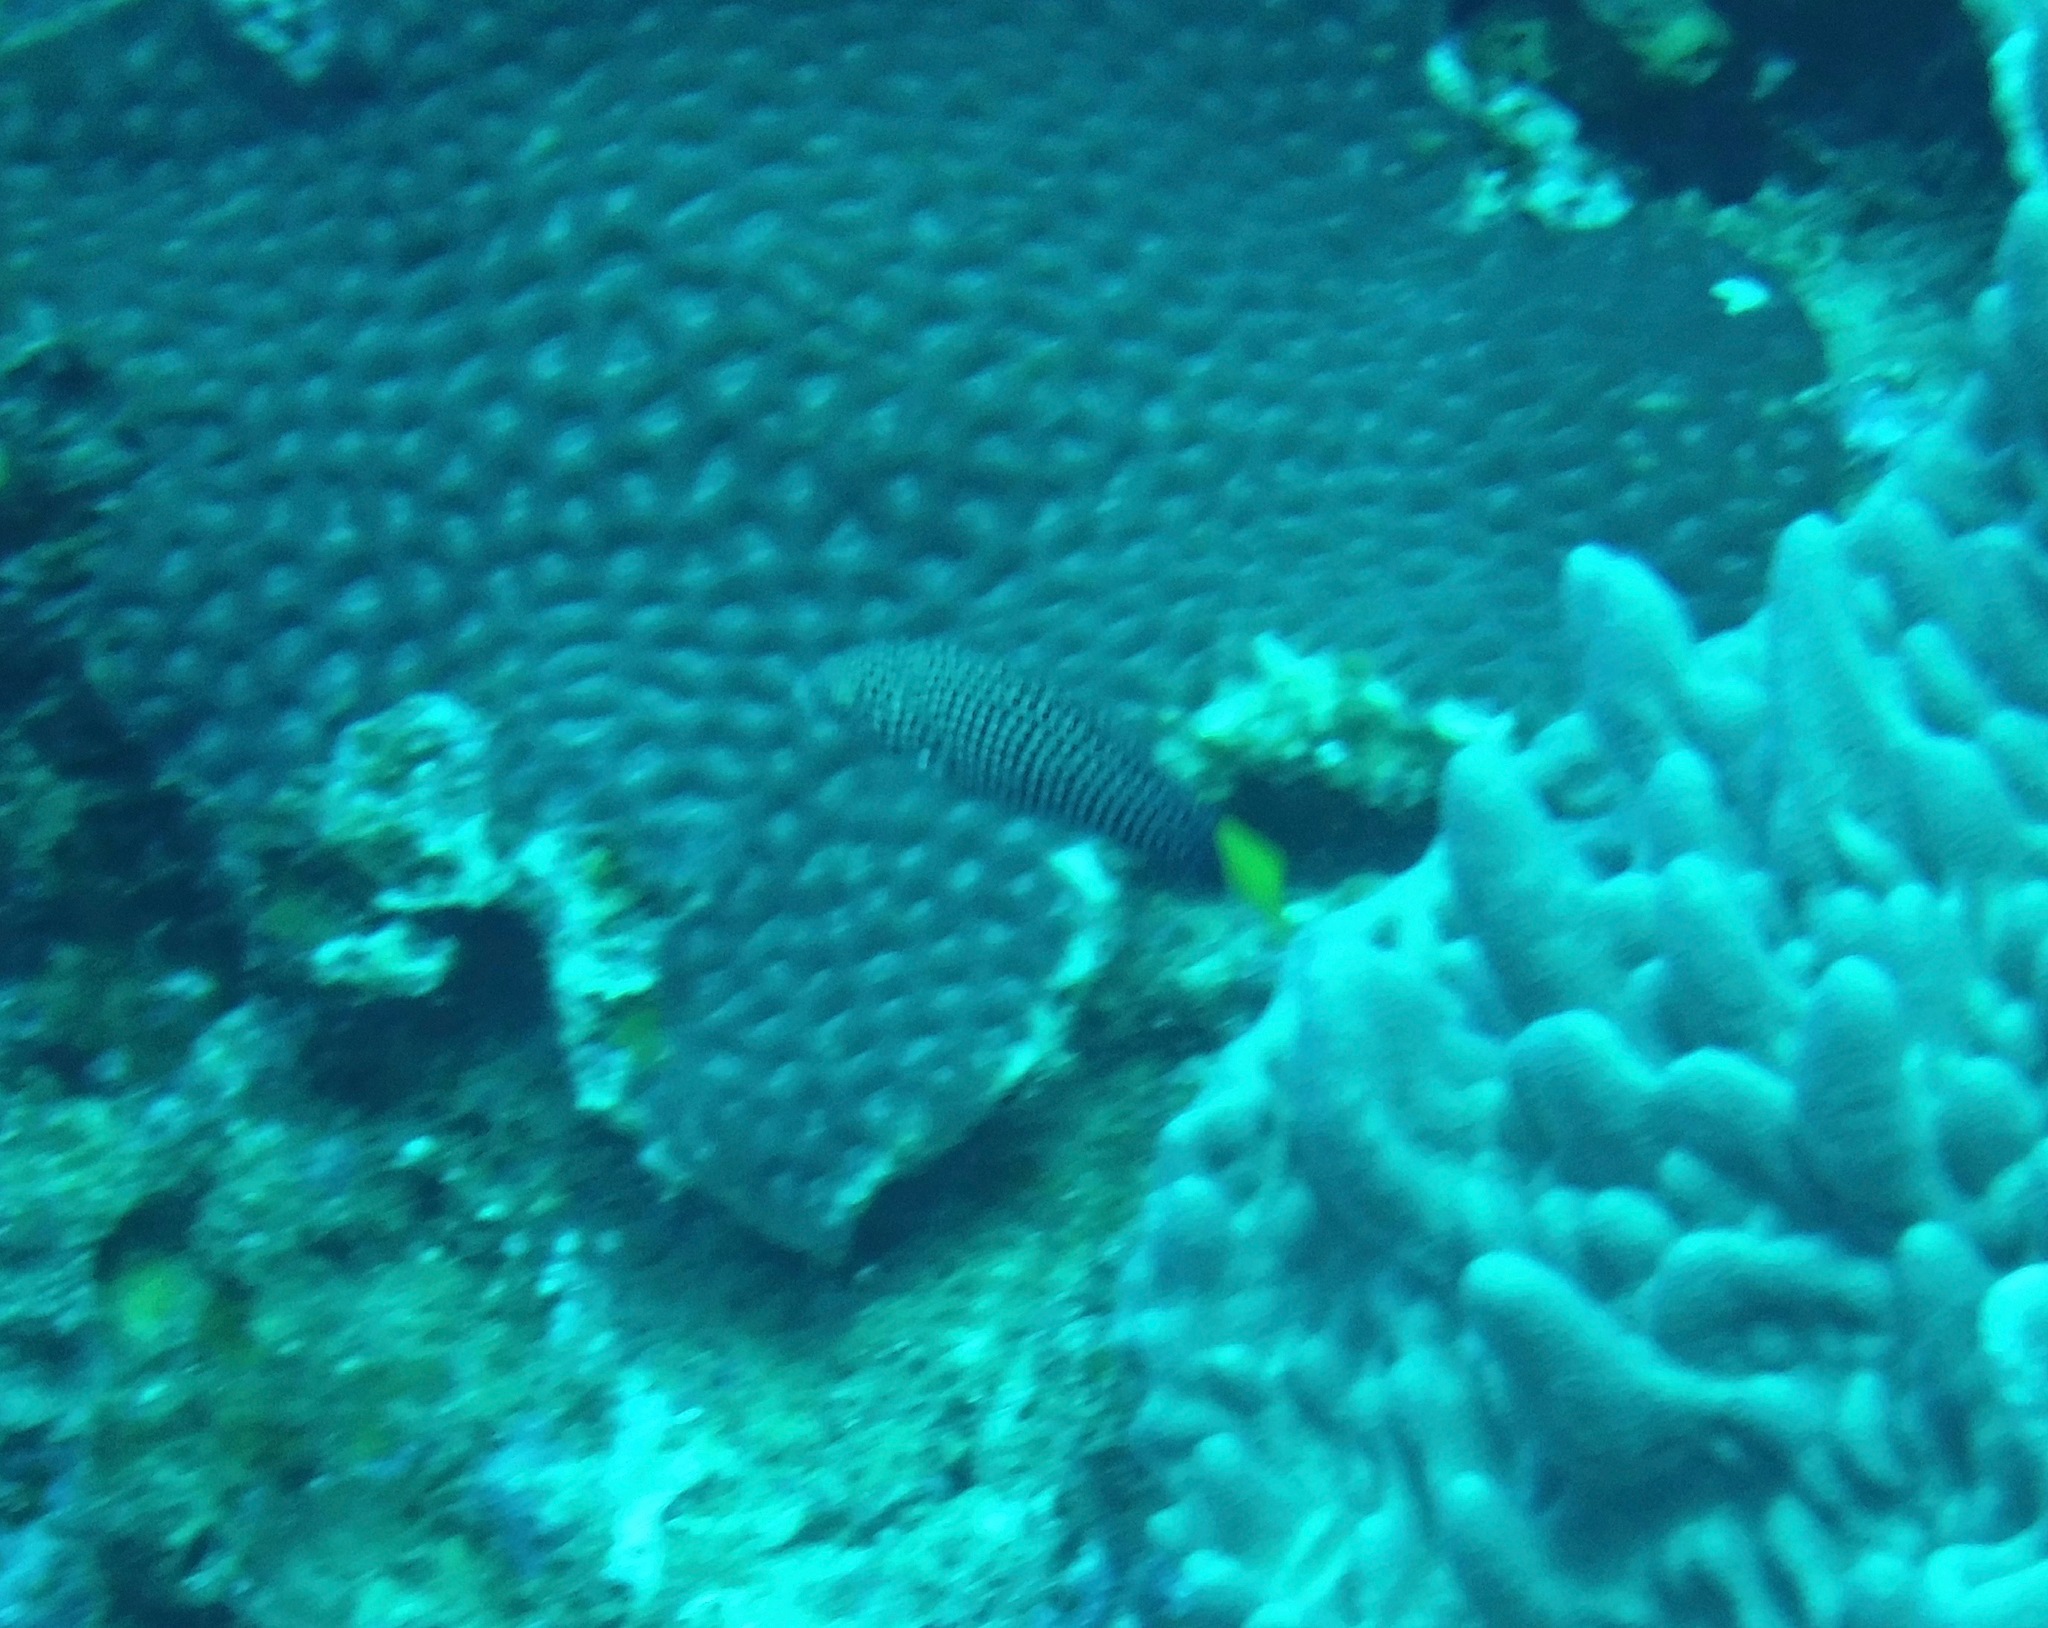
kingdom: Animalia
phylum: Chordata
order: Perciformes
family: Labridae
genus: Anampses
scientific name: Anampses meleagrides
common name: Yellowtail wrasse
